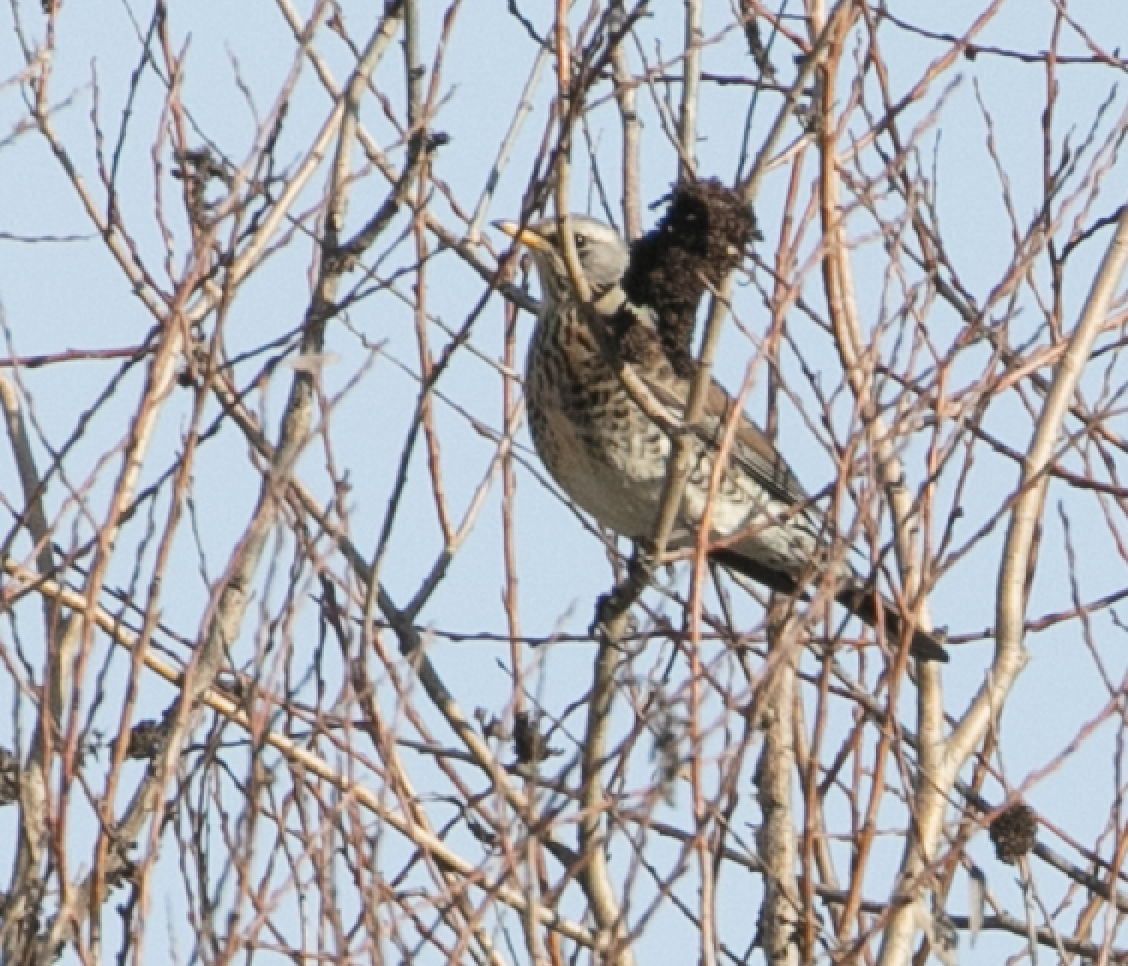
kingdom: Animalia
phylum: Chordata
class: Aves
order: Passeriformes
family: Turdidae
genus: Turdus
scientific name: Turdus pilaris
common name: Fieldfare
